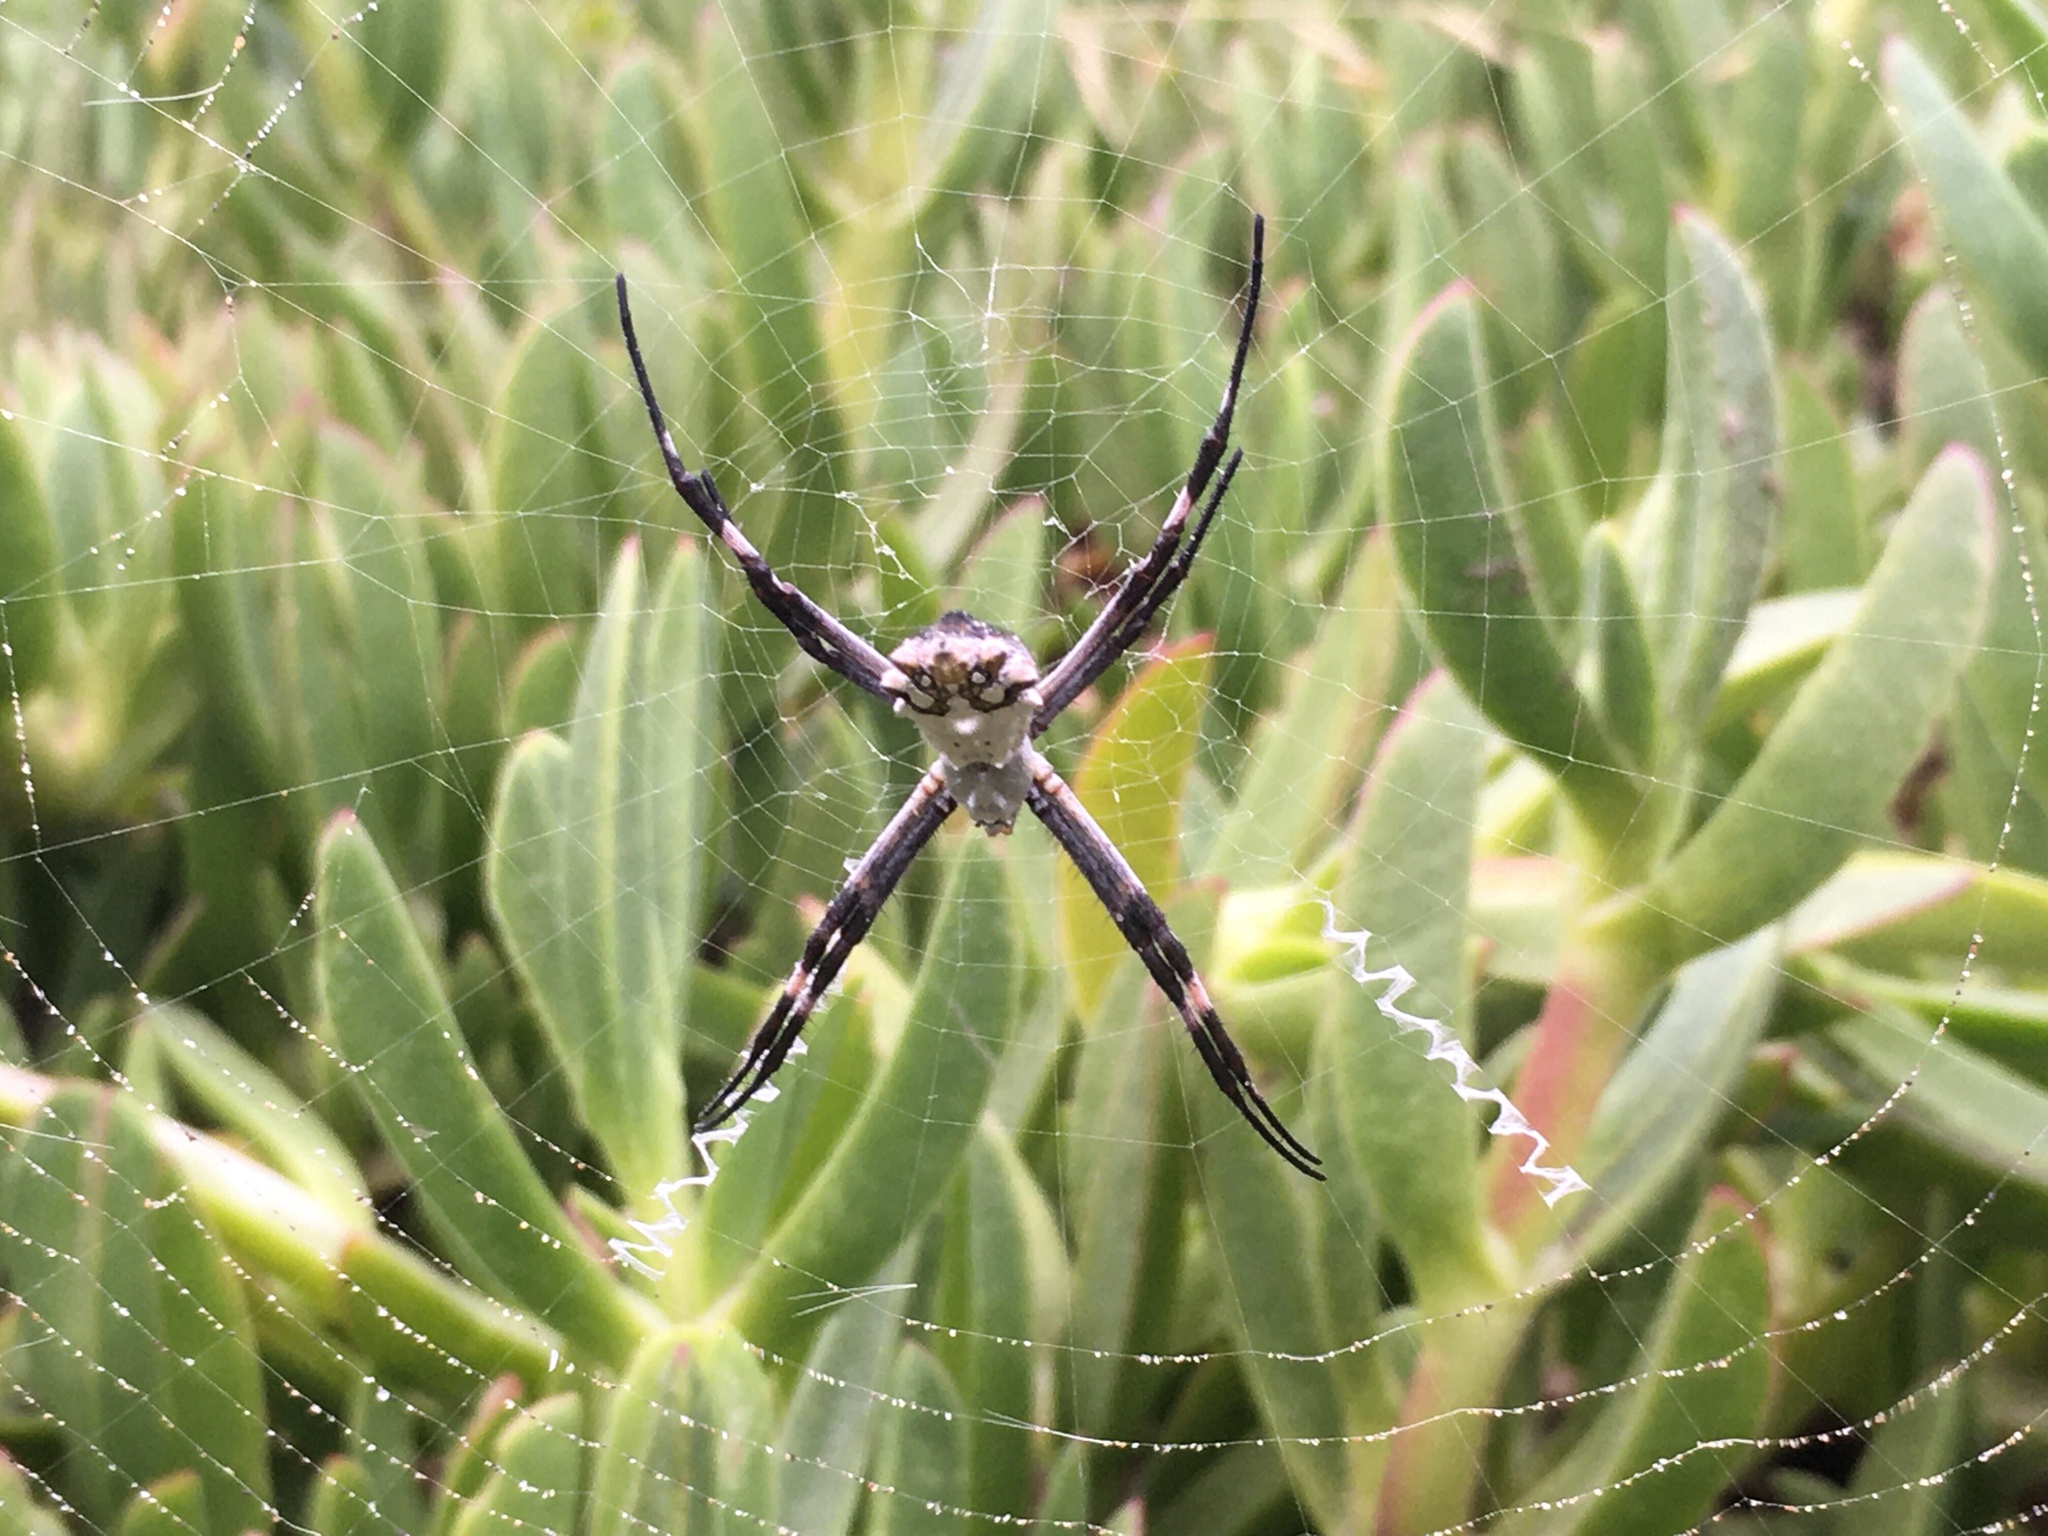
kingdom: Animalia
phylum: Arthropoda
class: Arachnida
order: Araneae
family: Araneidae
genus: Argiope
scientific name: Argiope argentata
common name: Orb weavers
